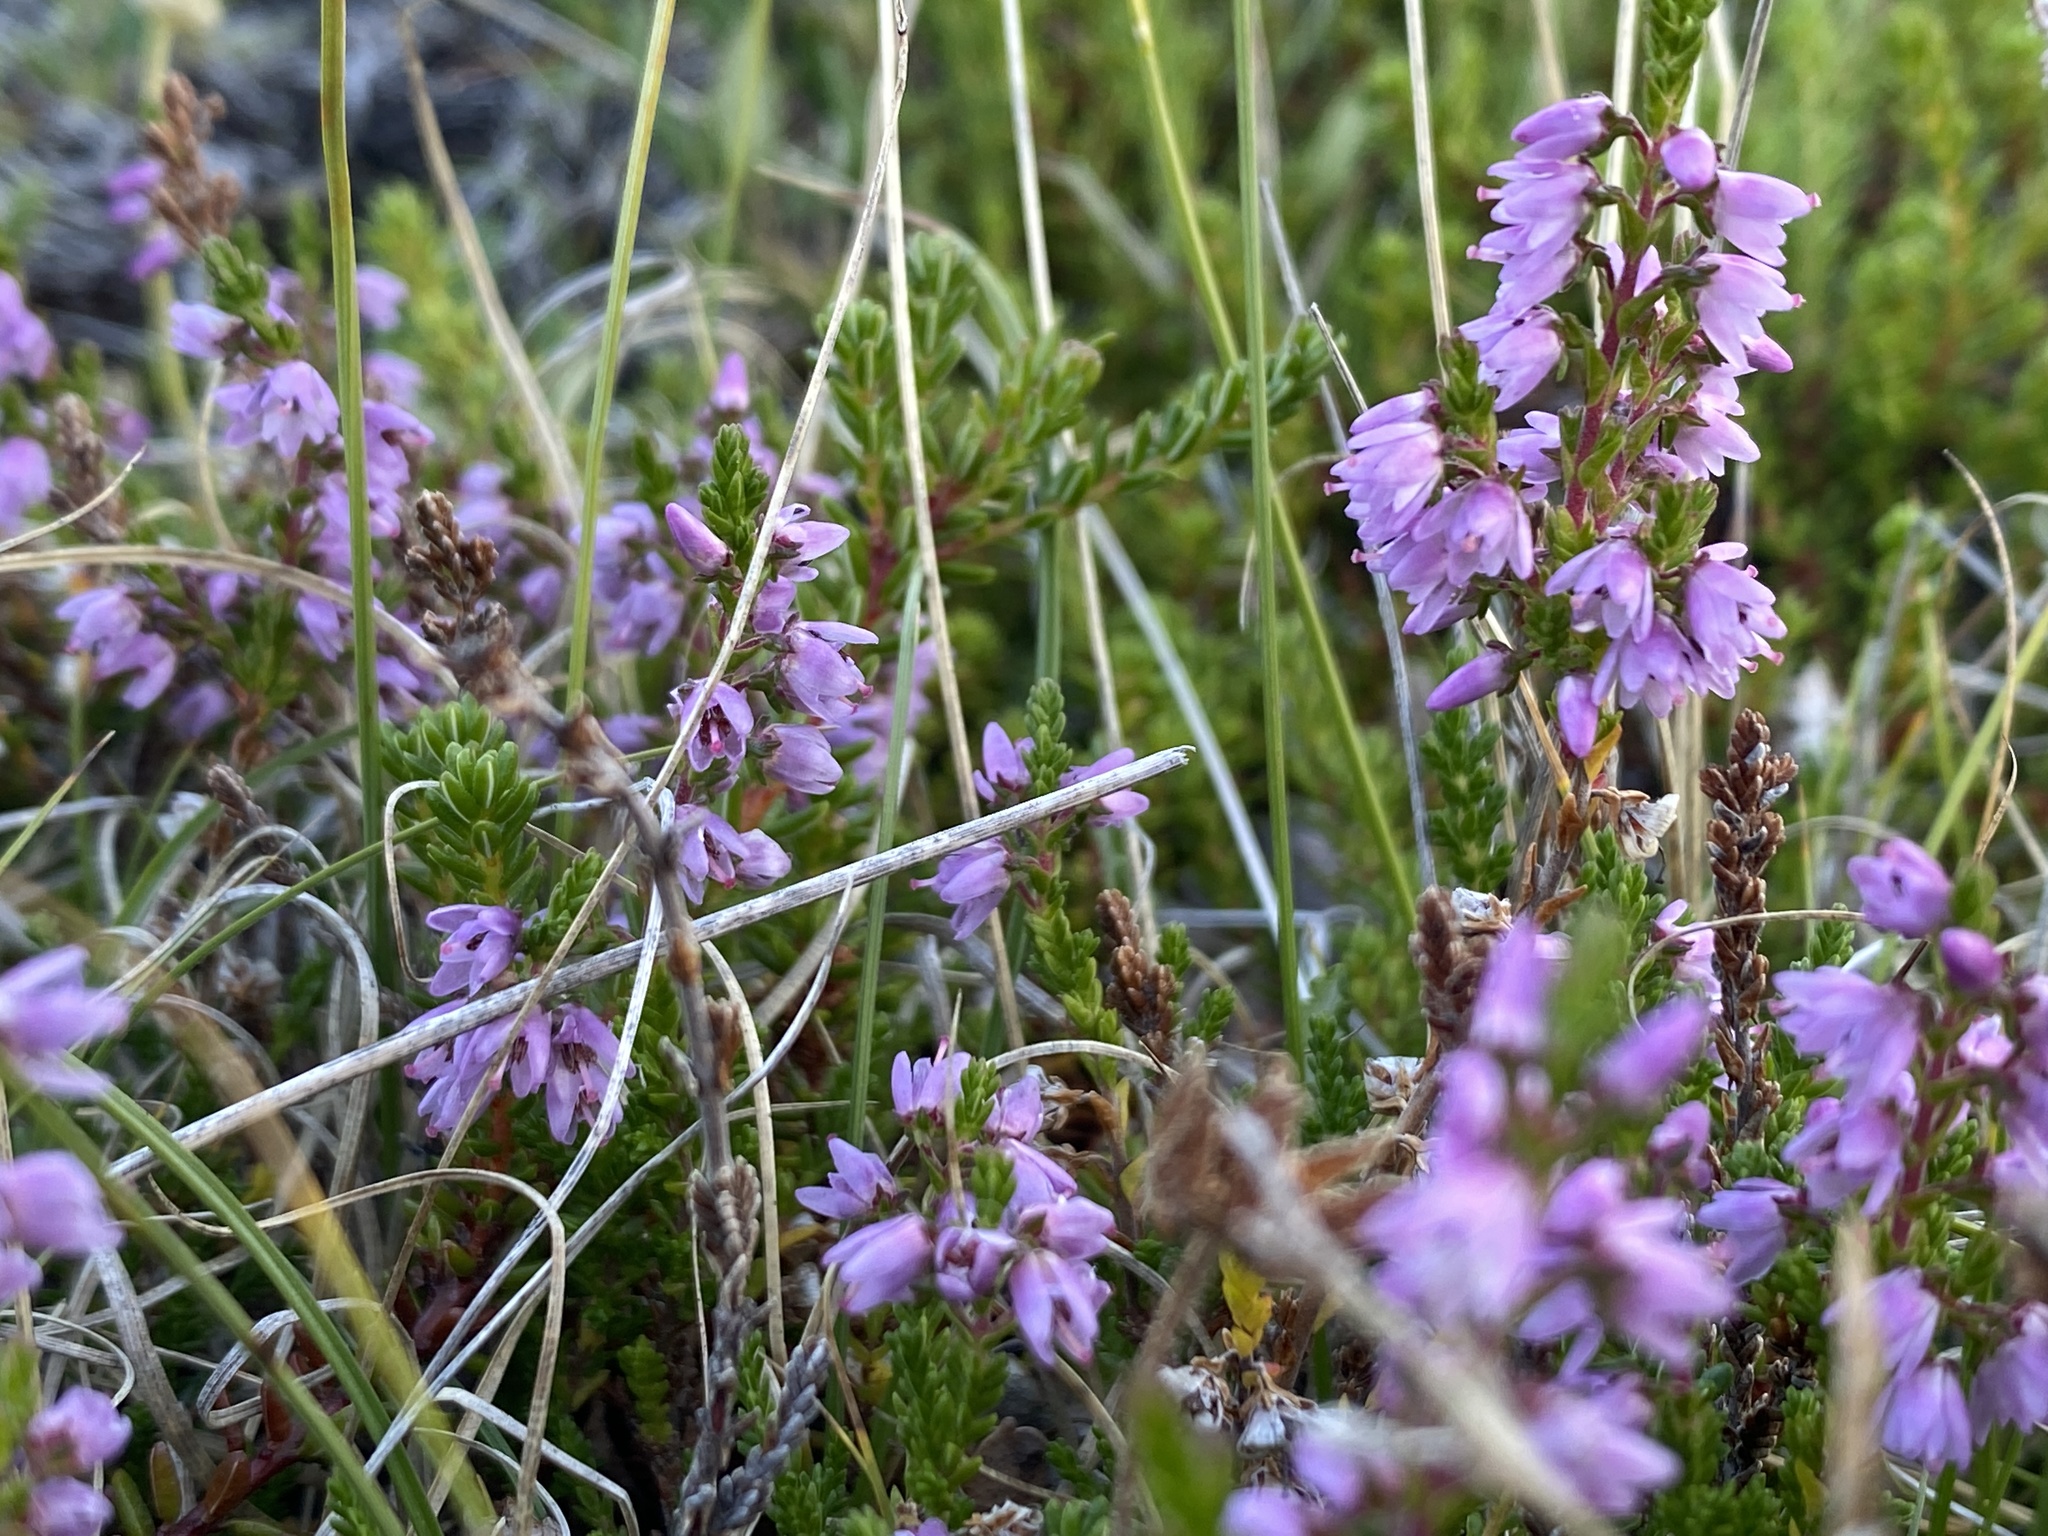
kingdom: Plantae
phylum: Tracheophyta
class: Magnoliopsida
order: Ericales
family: Ericaceae
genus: Calluna
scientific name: Calluna vulgaris
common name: Heather
